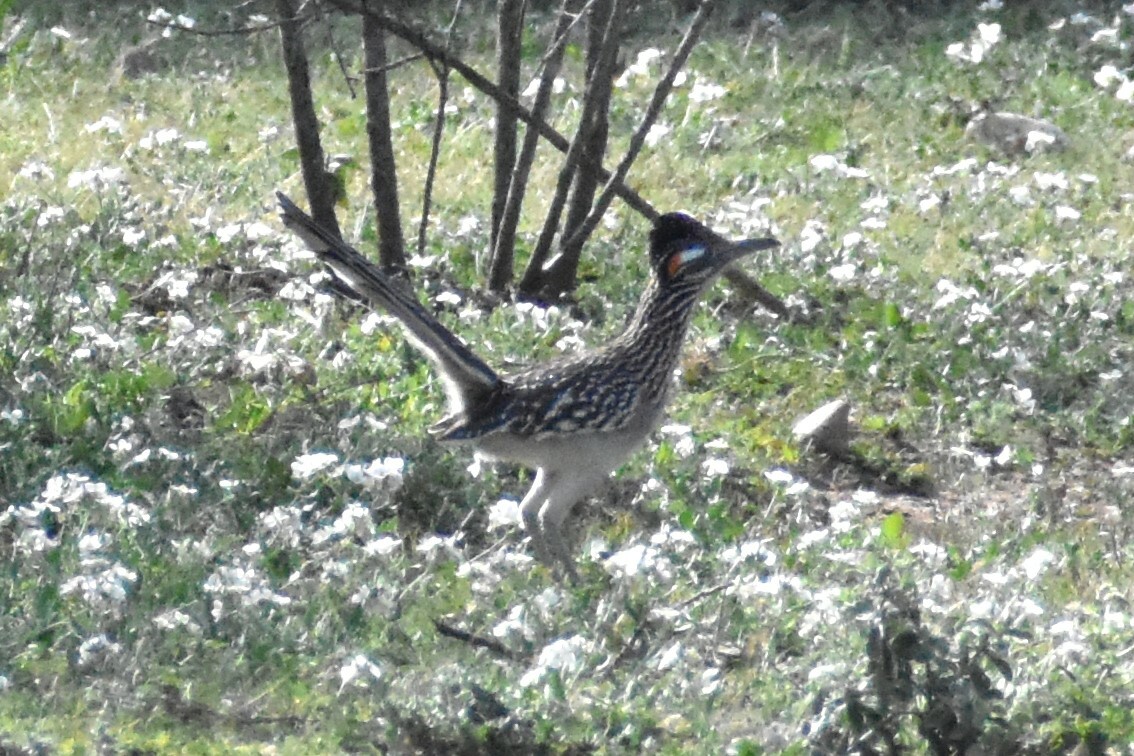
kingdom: Animalia
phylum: Chordata
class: Aves
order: Cuculiformes
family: Cuculidae
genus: Geococcyx
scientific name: Geococcyx californianus
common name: Greater roadrunner
